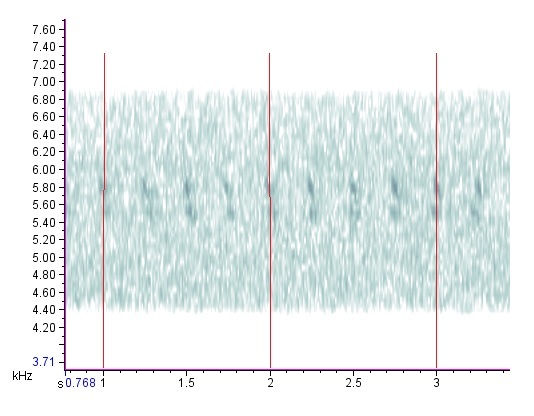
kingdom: Animalia
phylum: Arthropoda
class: Insecta
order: Orthoptera
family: Trigonidiidae
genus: Anaxipha
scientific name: Anaxipha tinnulenta
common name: Slow-tinkling trig
